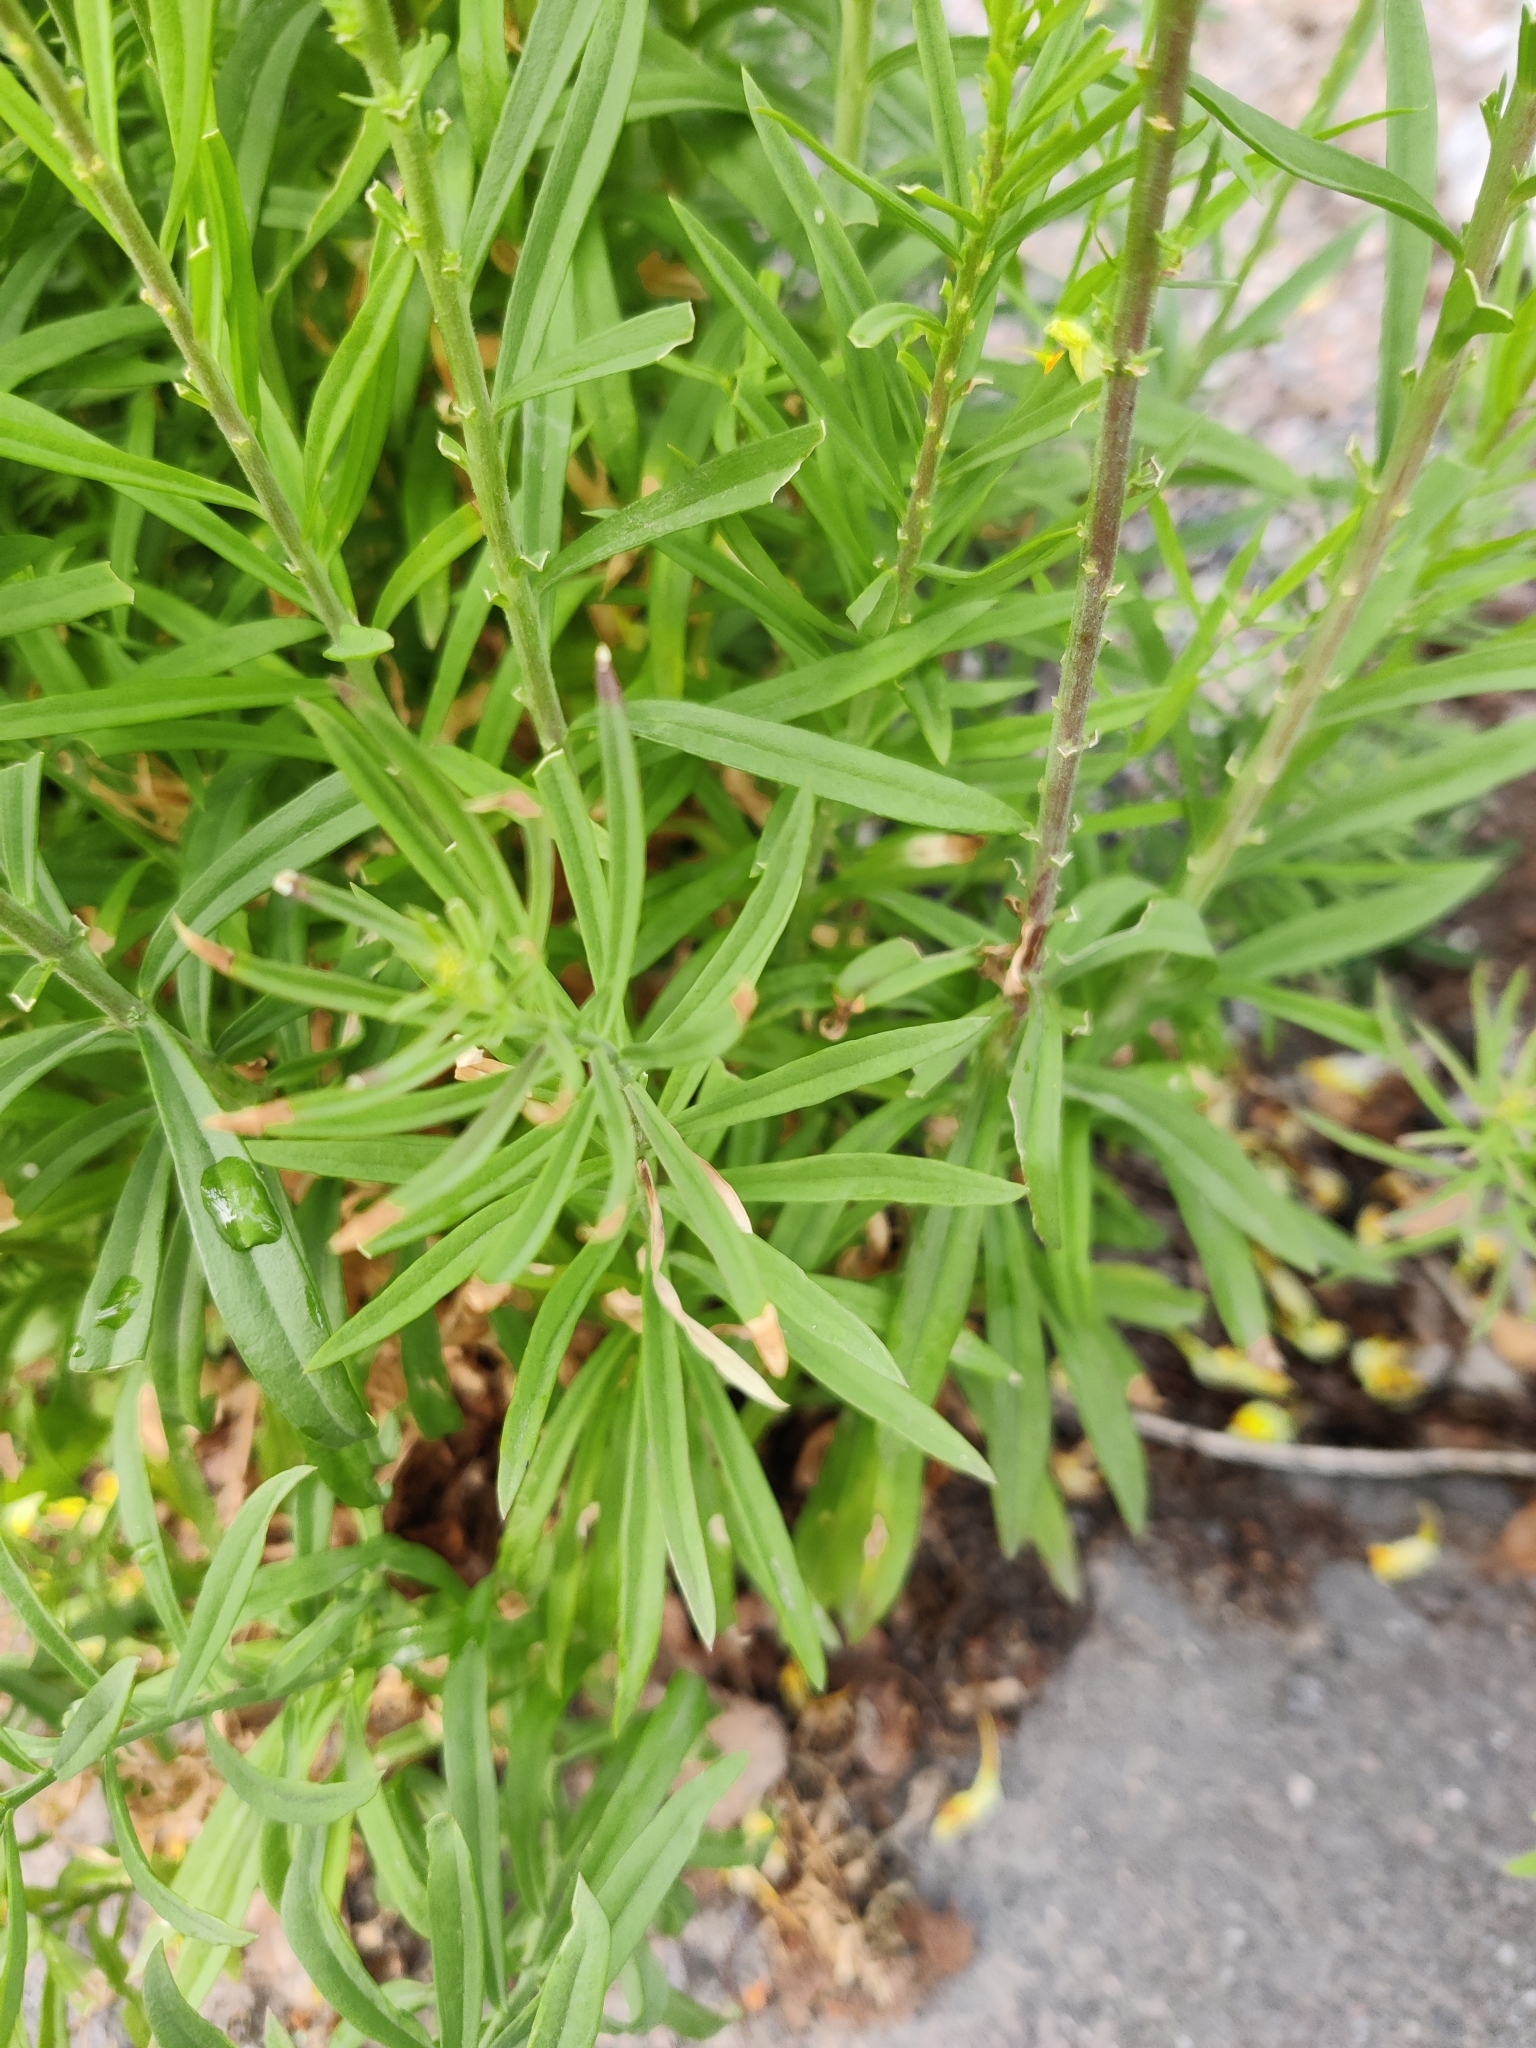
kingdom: Plantae
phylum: Tracheophyta
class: Magnoliopsida
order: Lamiales
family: Plantaginaceae
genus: Linaria
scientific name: Linaria vulgaris
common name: Butter and eggs
